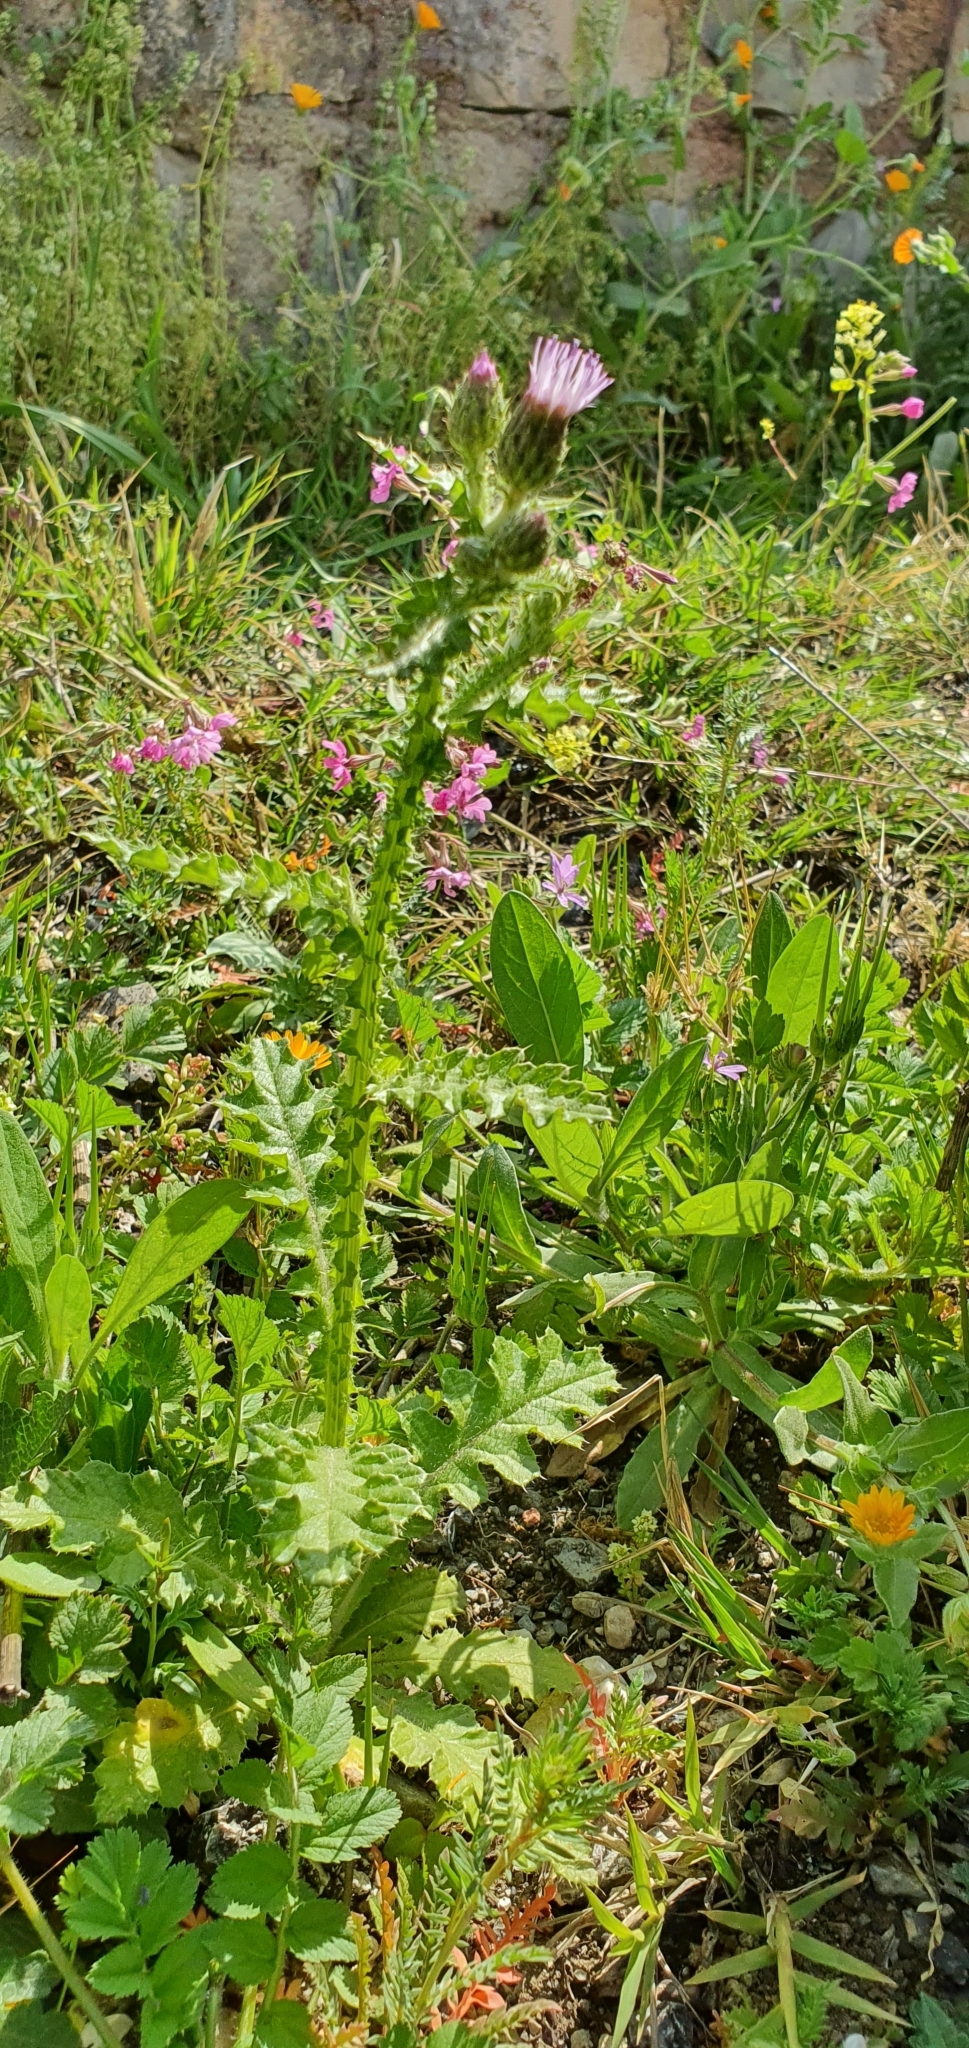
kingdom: Plantae
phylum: Tracheophyta
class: Magnoliopsida
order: Asterales
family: Asteraceae
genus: Carduus
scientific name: Carduus spachianus
